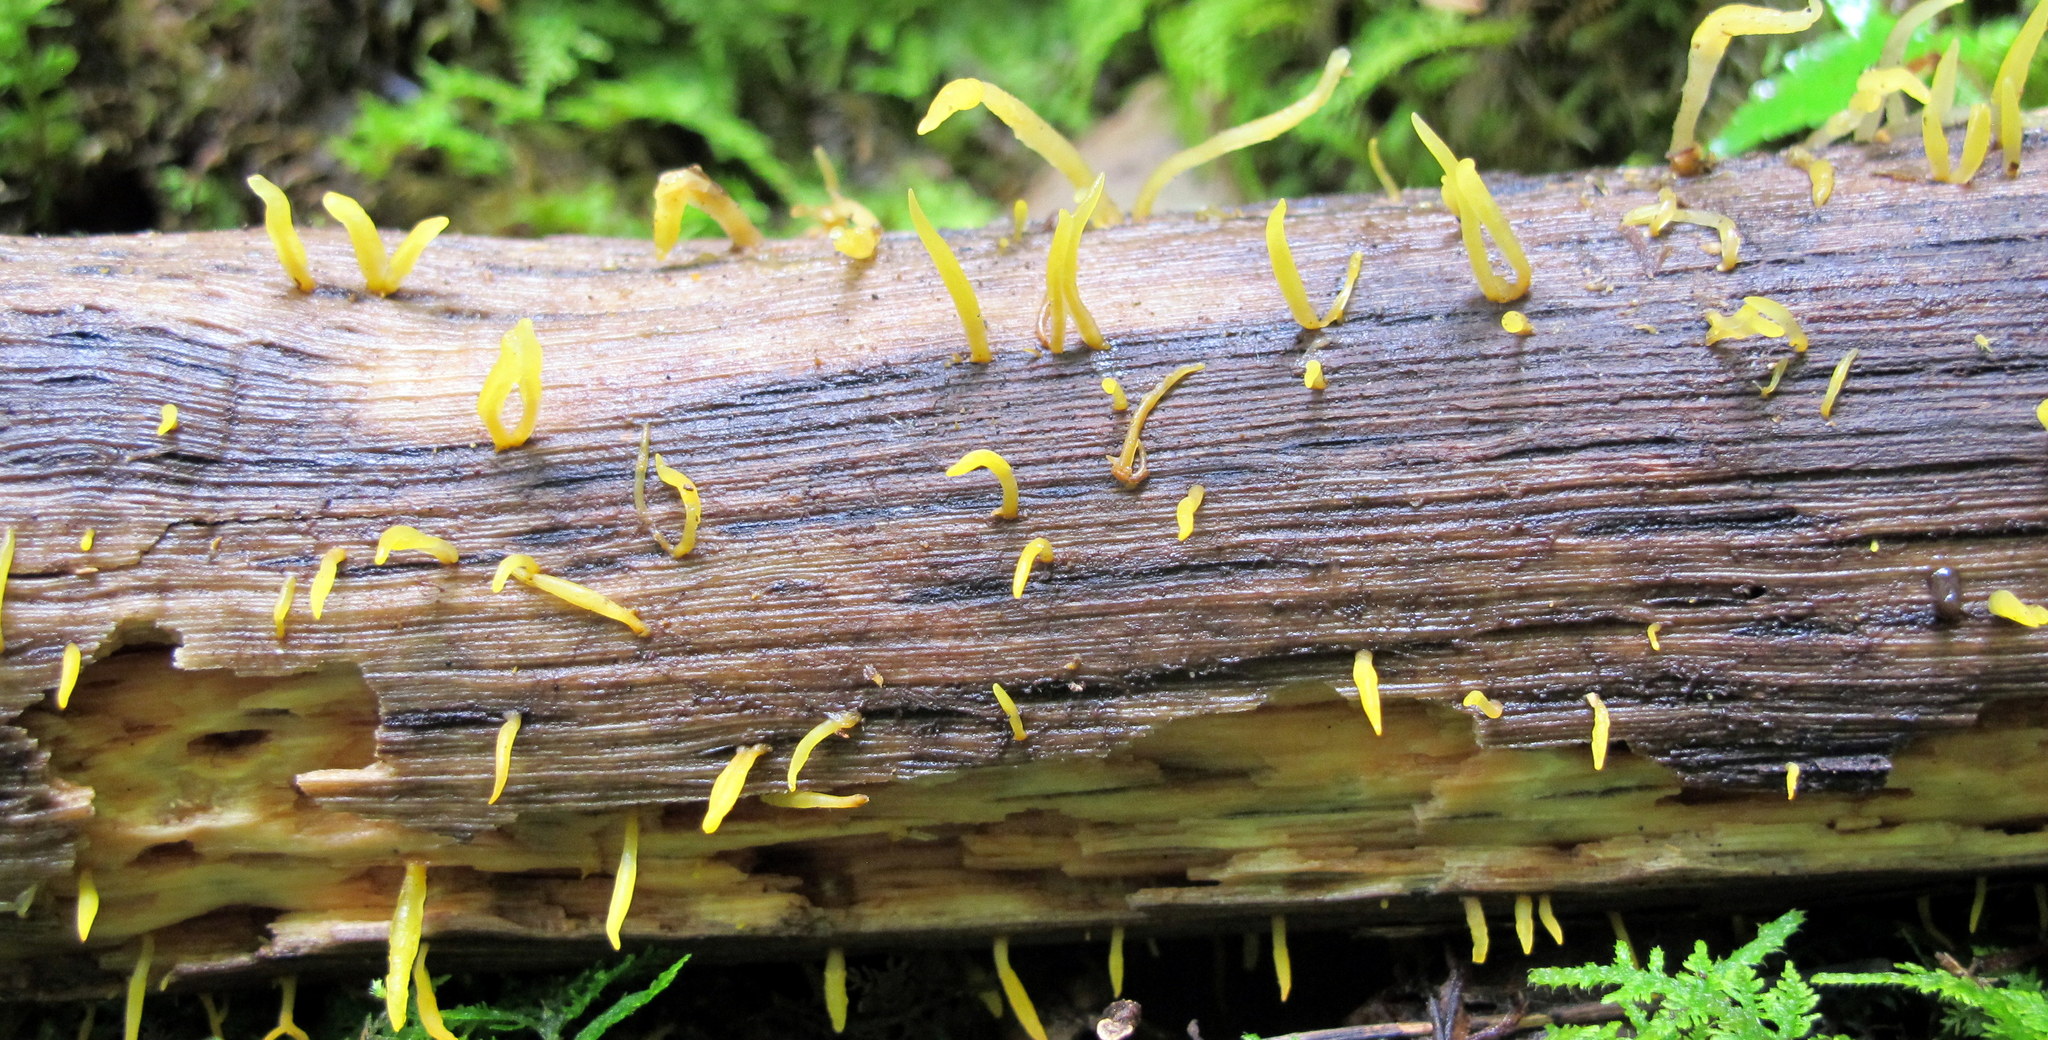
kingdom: Fungi
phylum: Basidiomycota
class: Dacrymycetes
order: Dacrymycetales
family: Dacrymycetaceae
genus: Calocera
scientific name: Calocera cornea
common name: Small stagshorn
